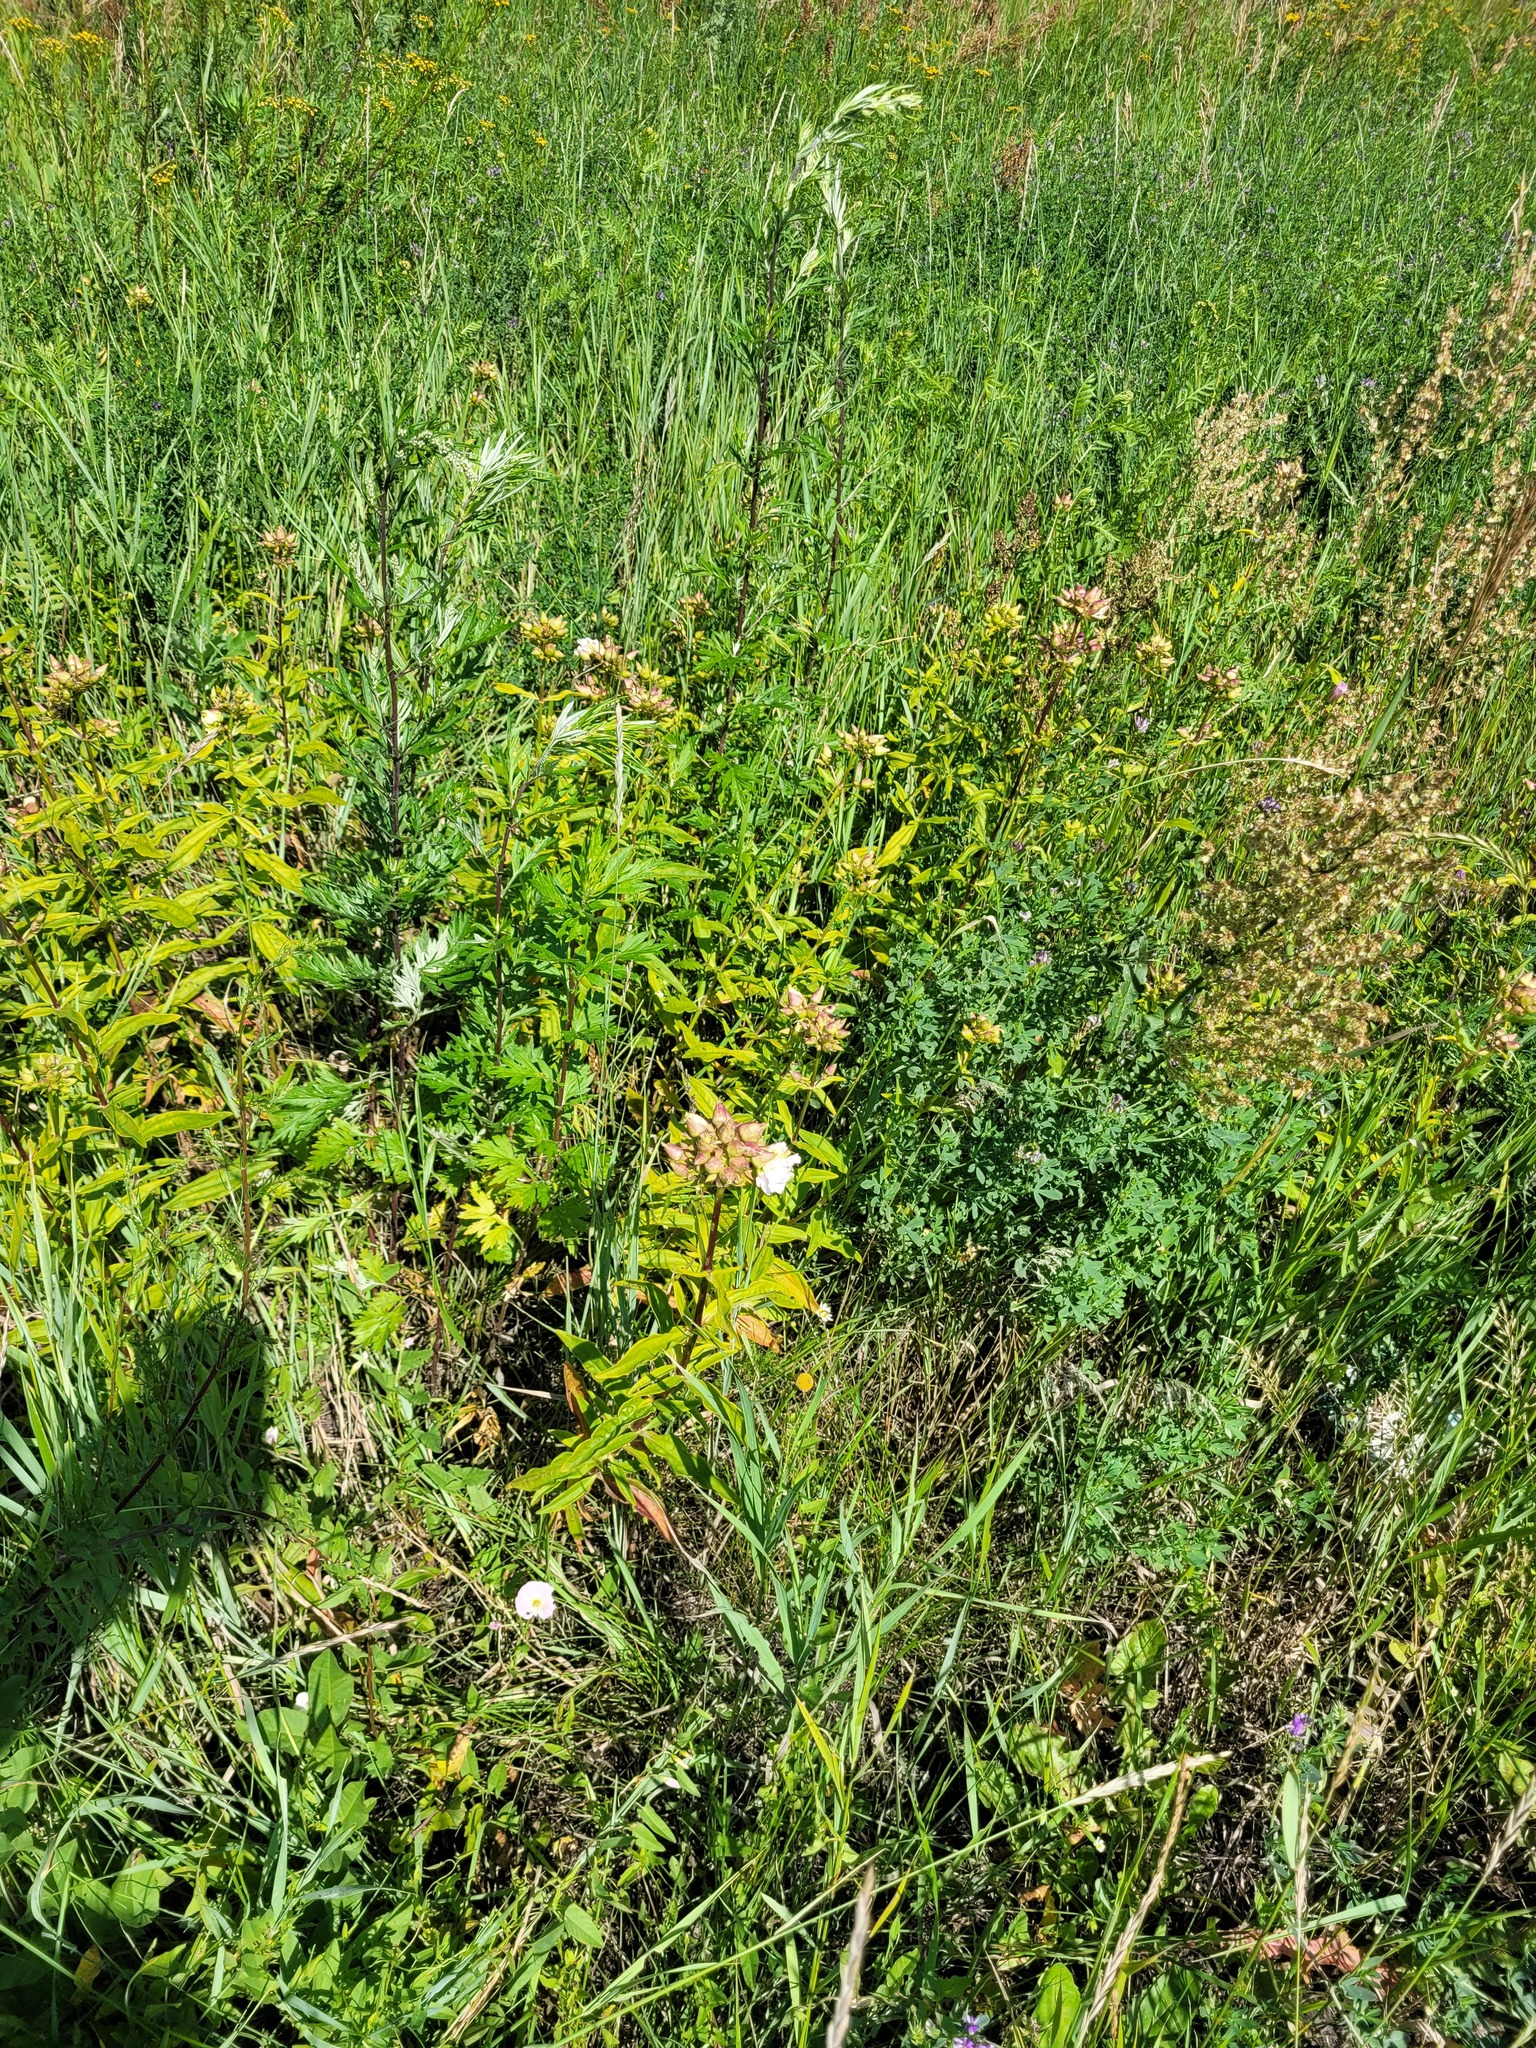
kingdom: Plantae
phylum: Tracheophyta
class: Magnoliopsida
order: Caryophyllales
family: Caryophyllaceae
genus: Saponaria
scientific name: Saponaria officinalis
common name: Soapwort
